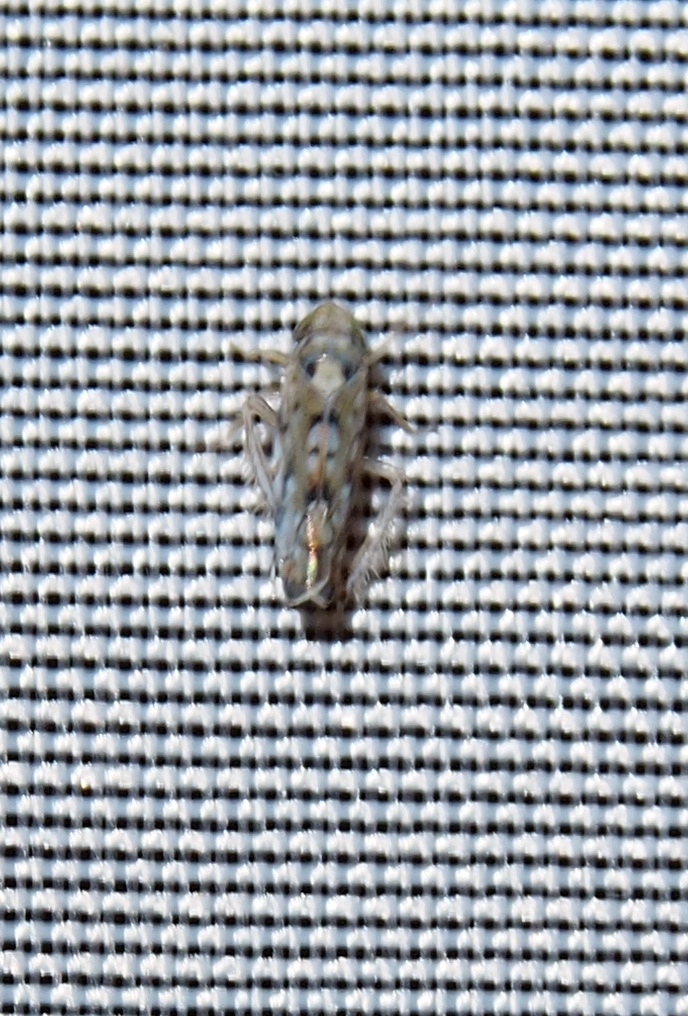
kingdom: Animalia
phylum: Arthropoda
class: Insecta
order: Hemiptera
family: Cicadellidae
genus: Scaphoideus
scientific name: Scaphoideus opalinus
